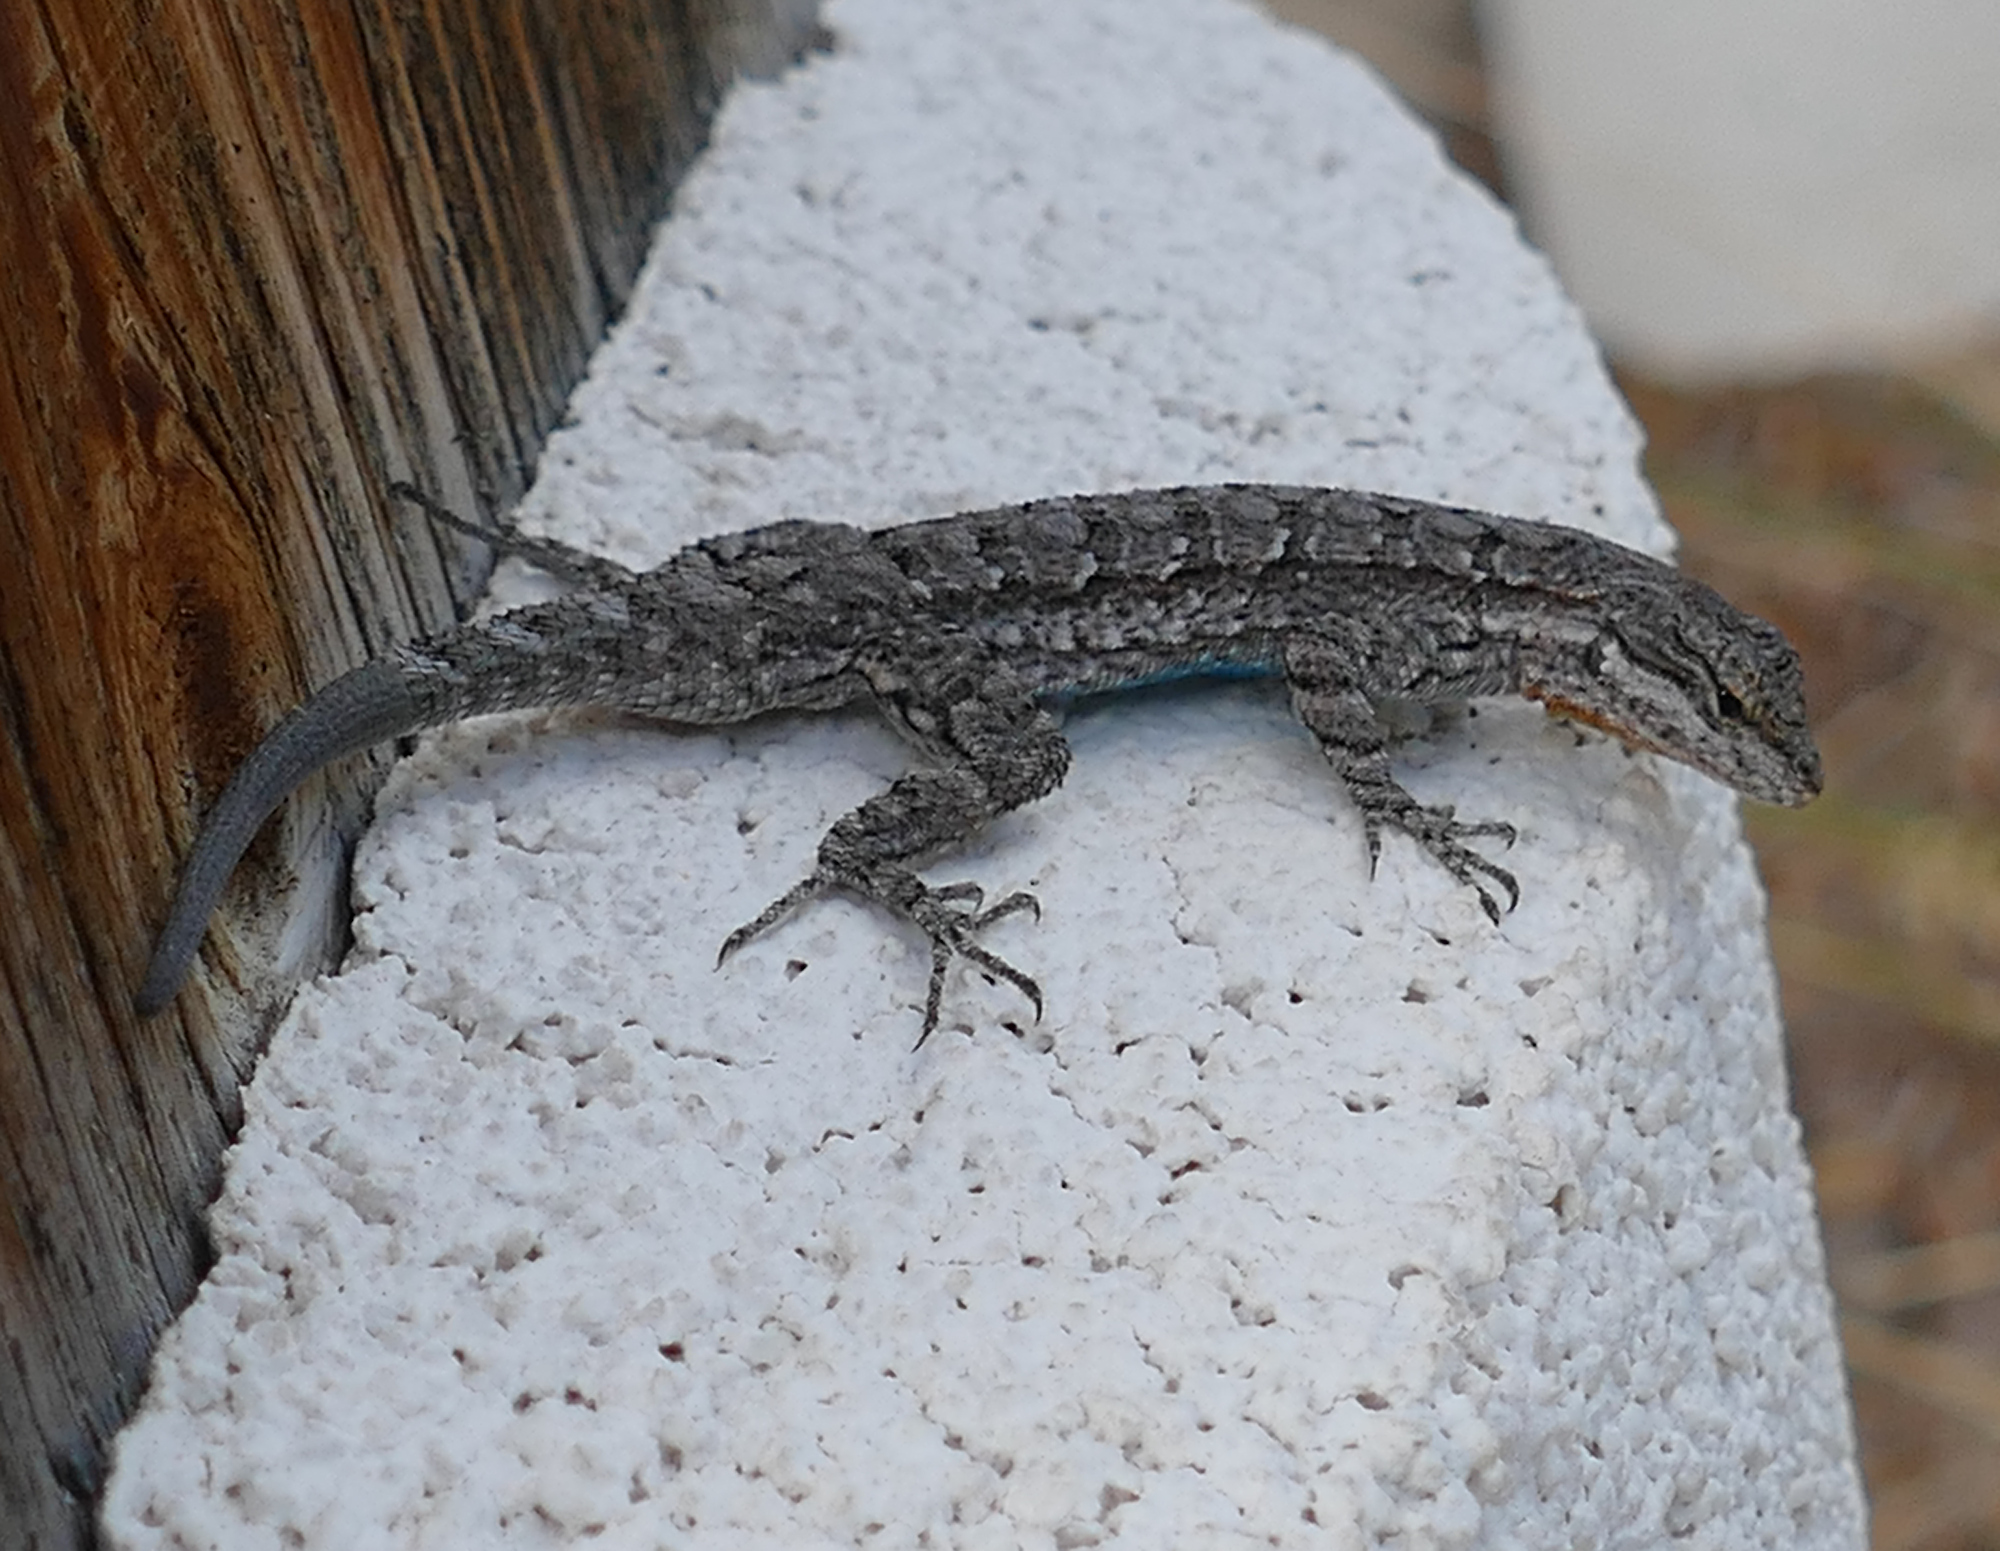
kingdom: Animalia
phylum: Chordata
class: Squamata
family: Phrynosomatidae
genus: Urosaurus
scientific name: Urosaurus ornatus
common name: Ornate tree lizard
